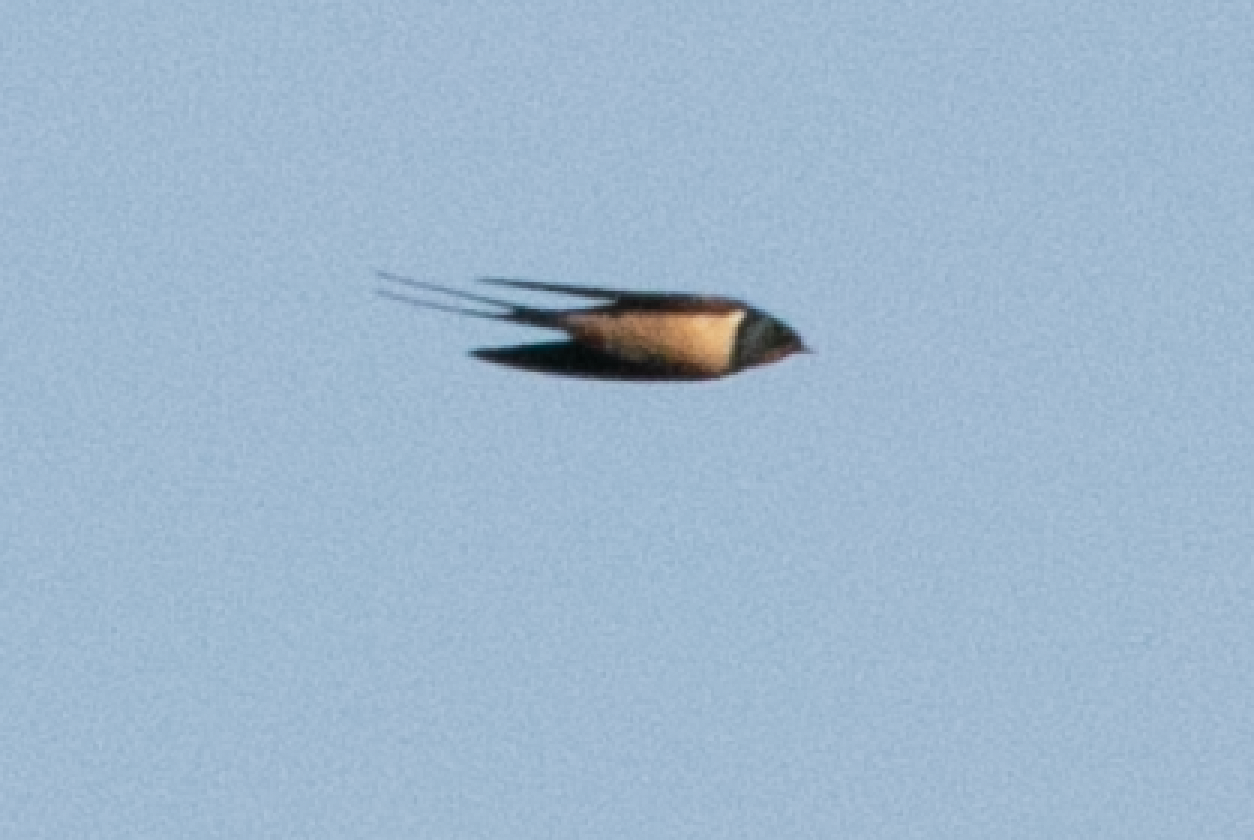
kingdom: Animalia
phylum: Chordata
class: Aves
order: Passeriformes
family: Hirundinidae
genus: Hirundo
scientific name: Hirundo rustica
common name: Barn swallow
